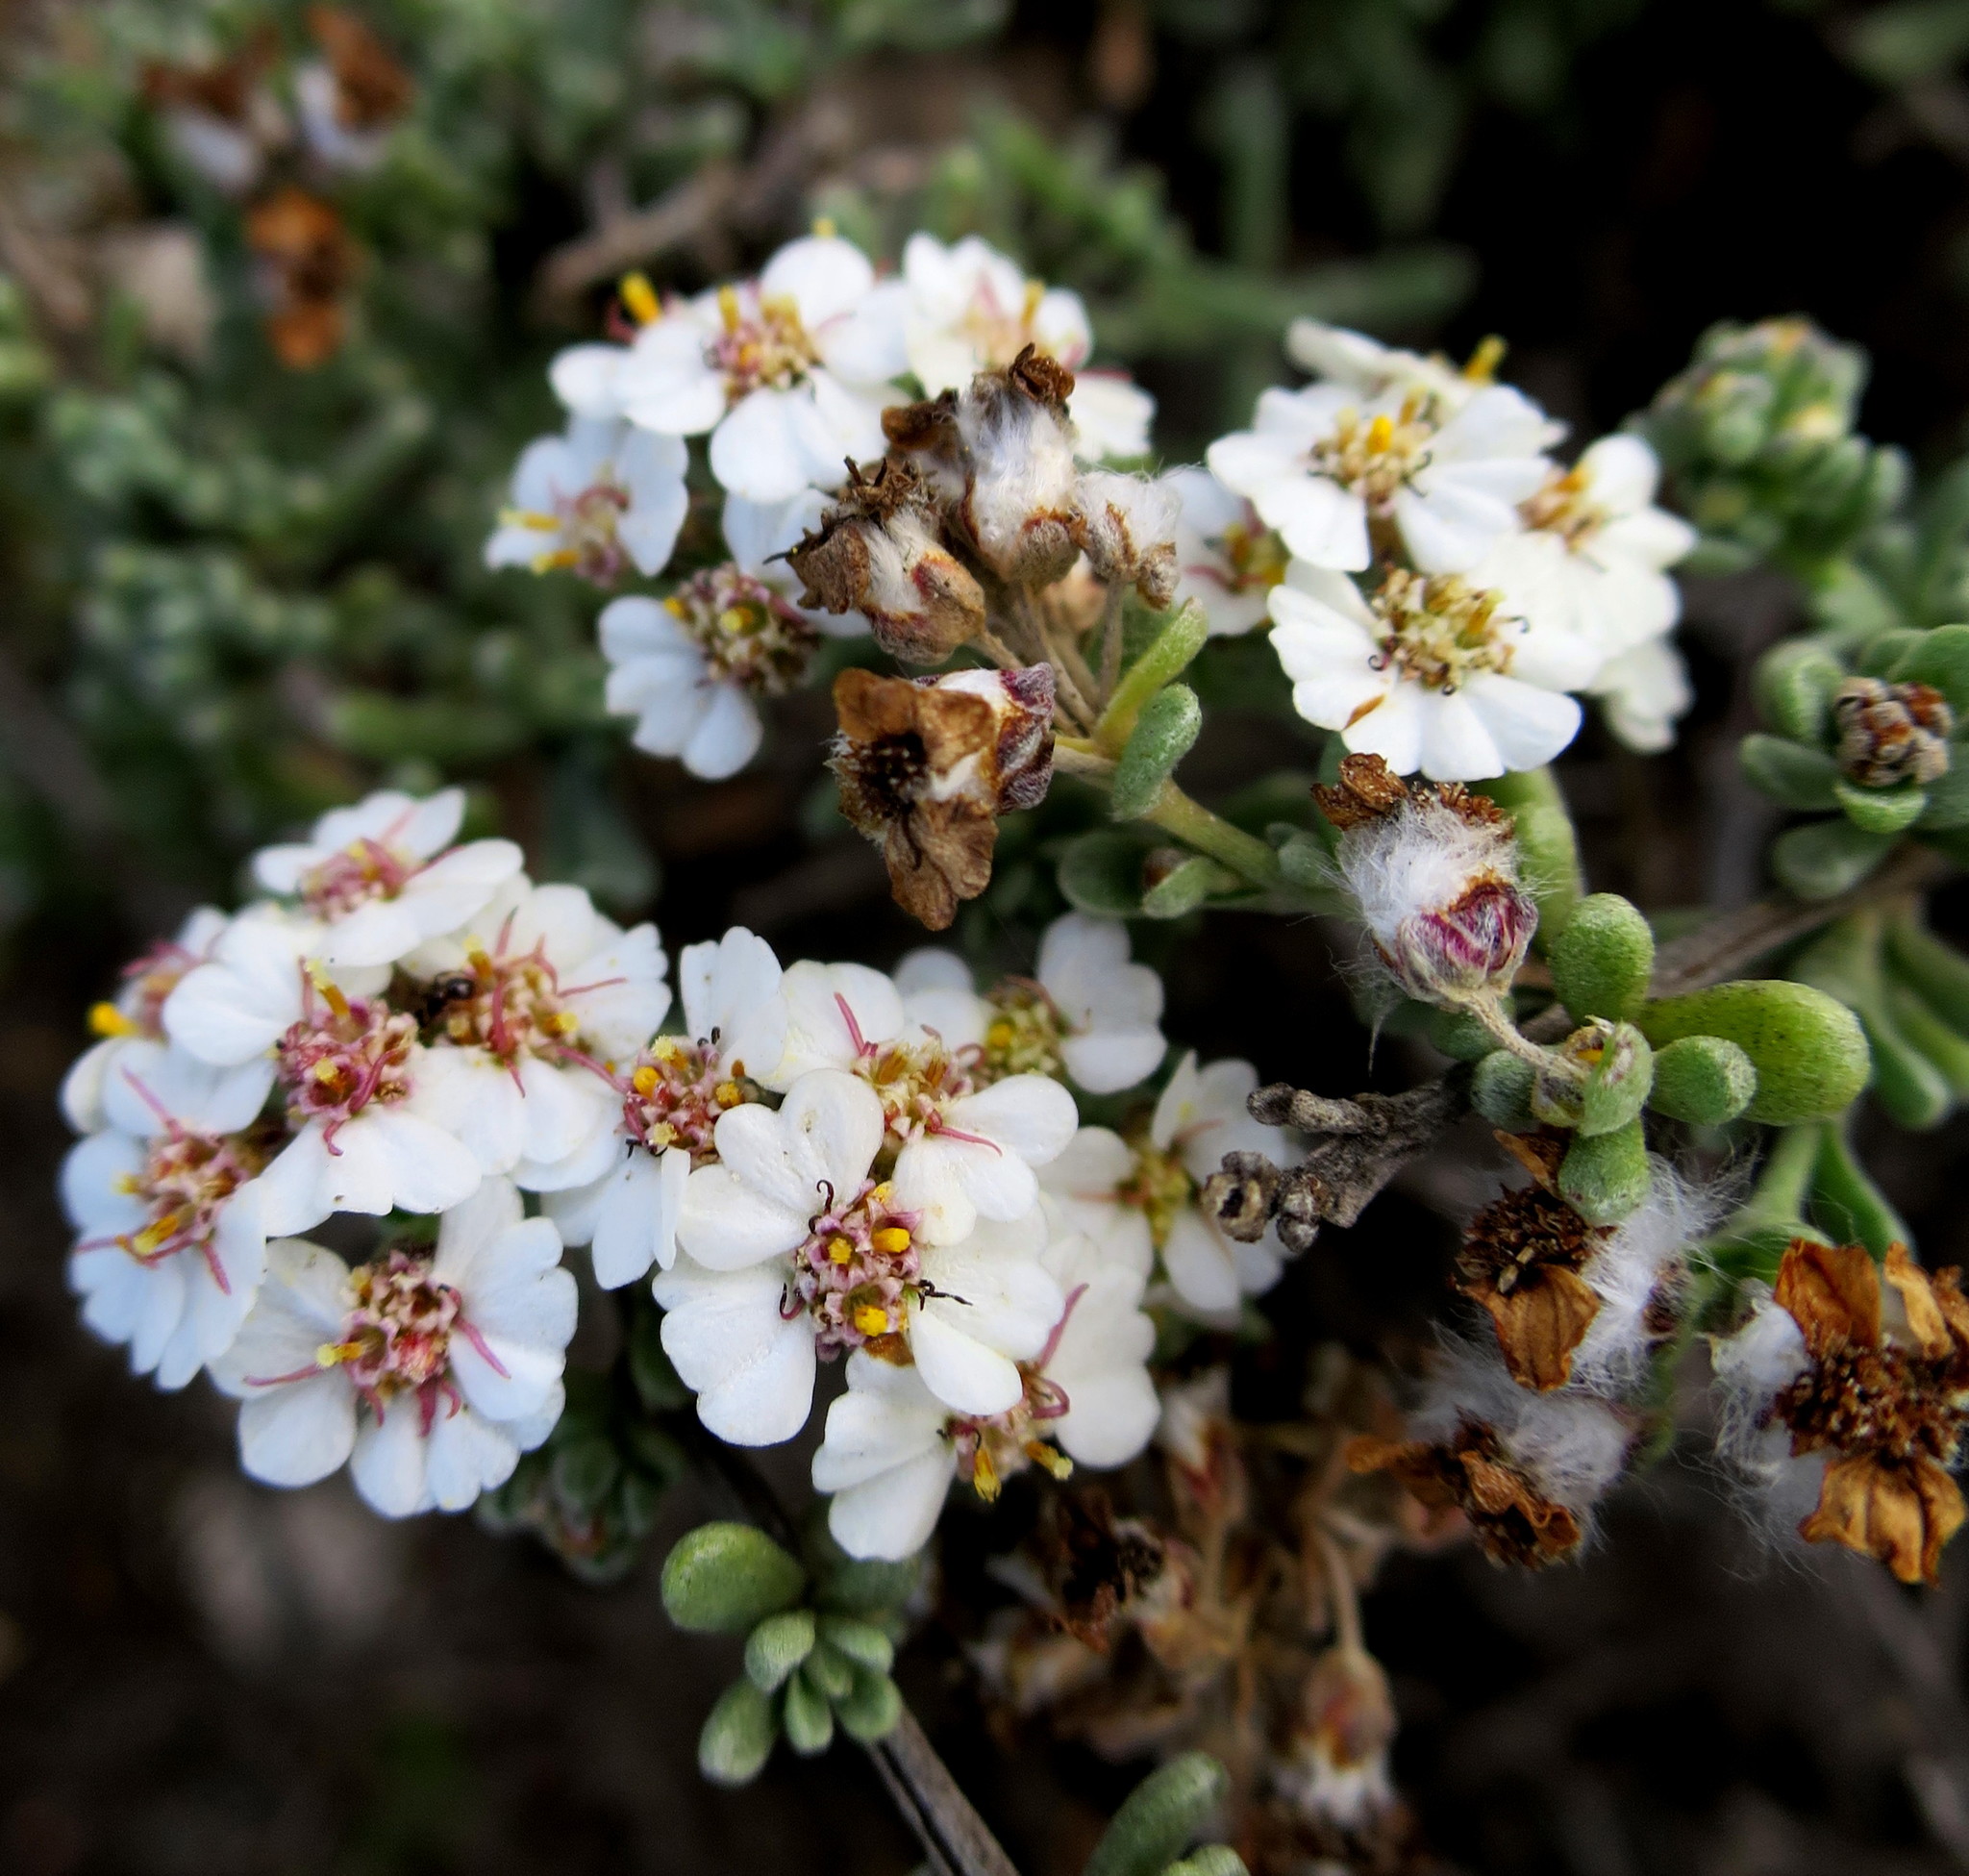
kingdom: Plantae
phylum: Tracheophyta
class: Magnoliopsida
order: Asterales
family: Asteraceae
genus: Eriocephalus
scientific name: Eriocephalus africanus
